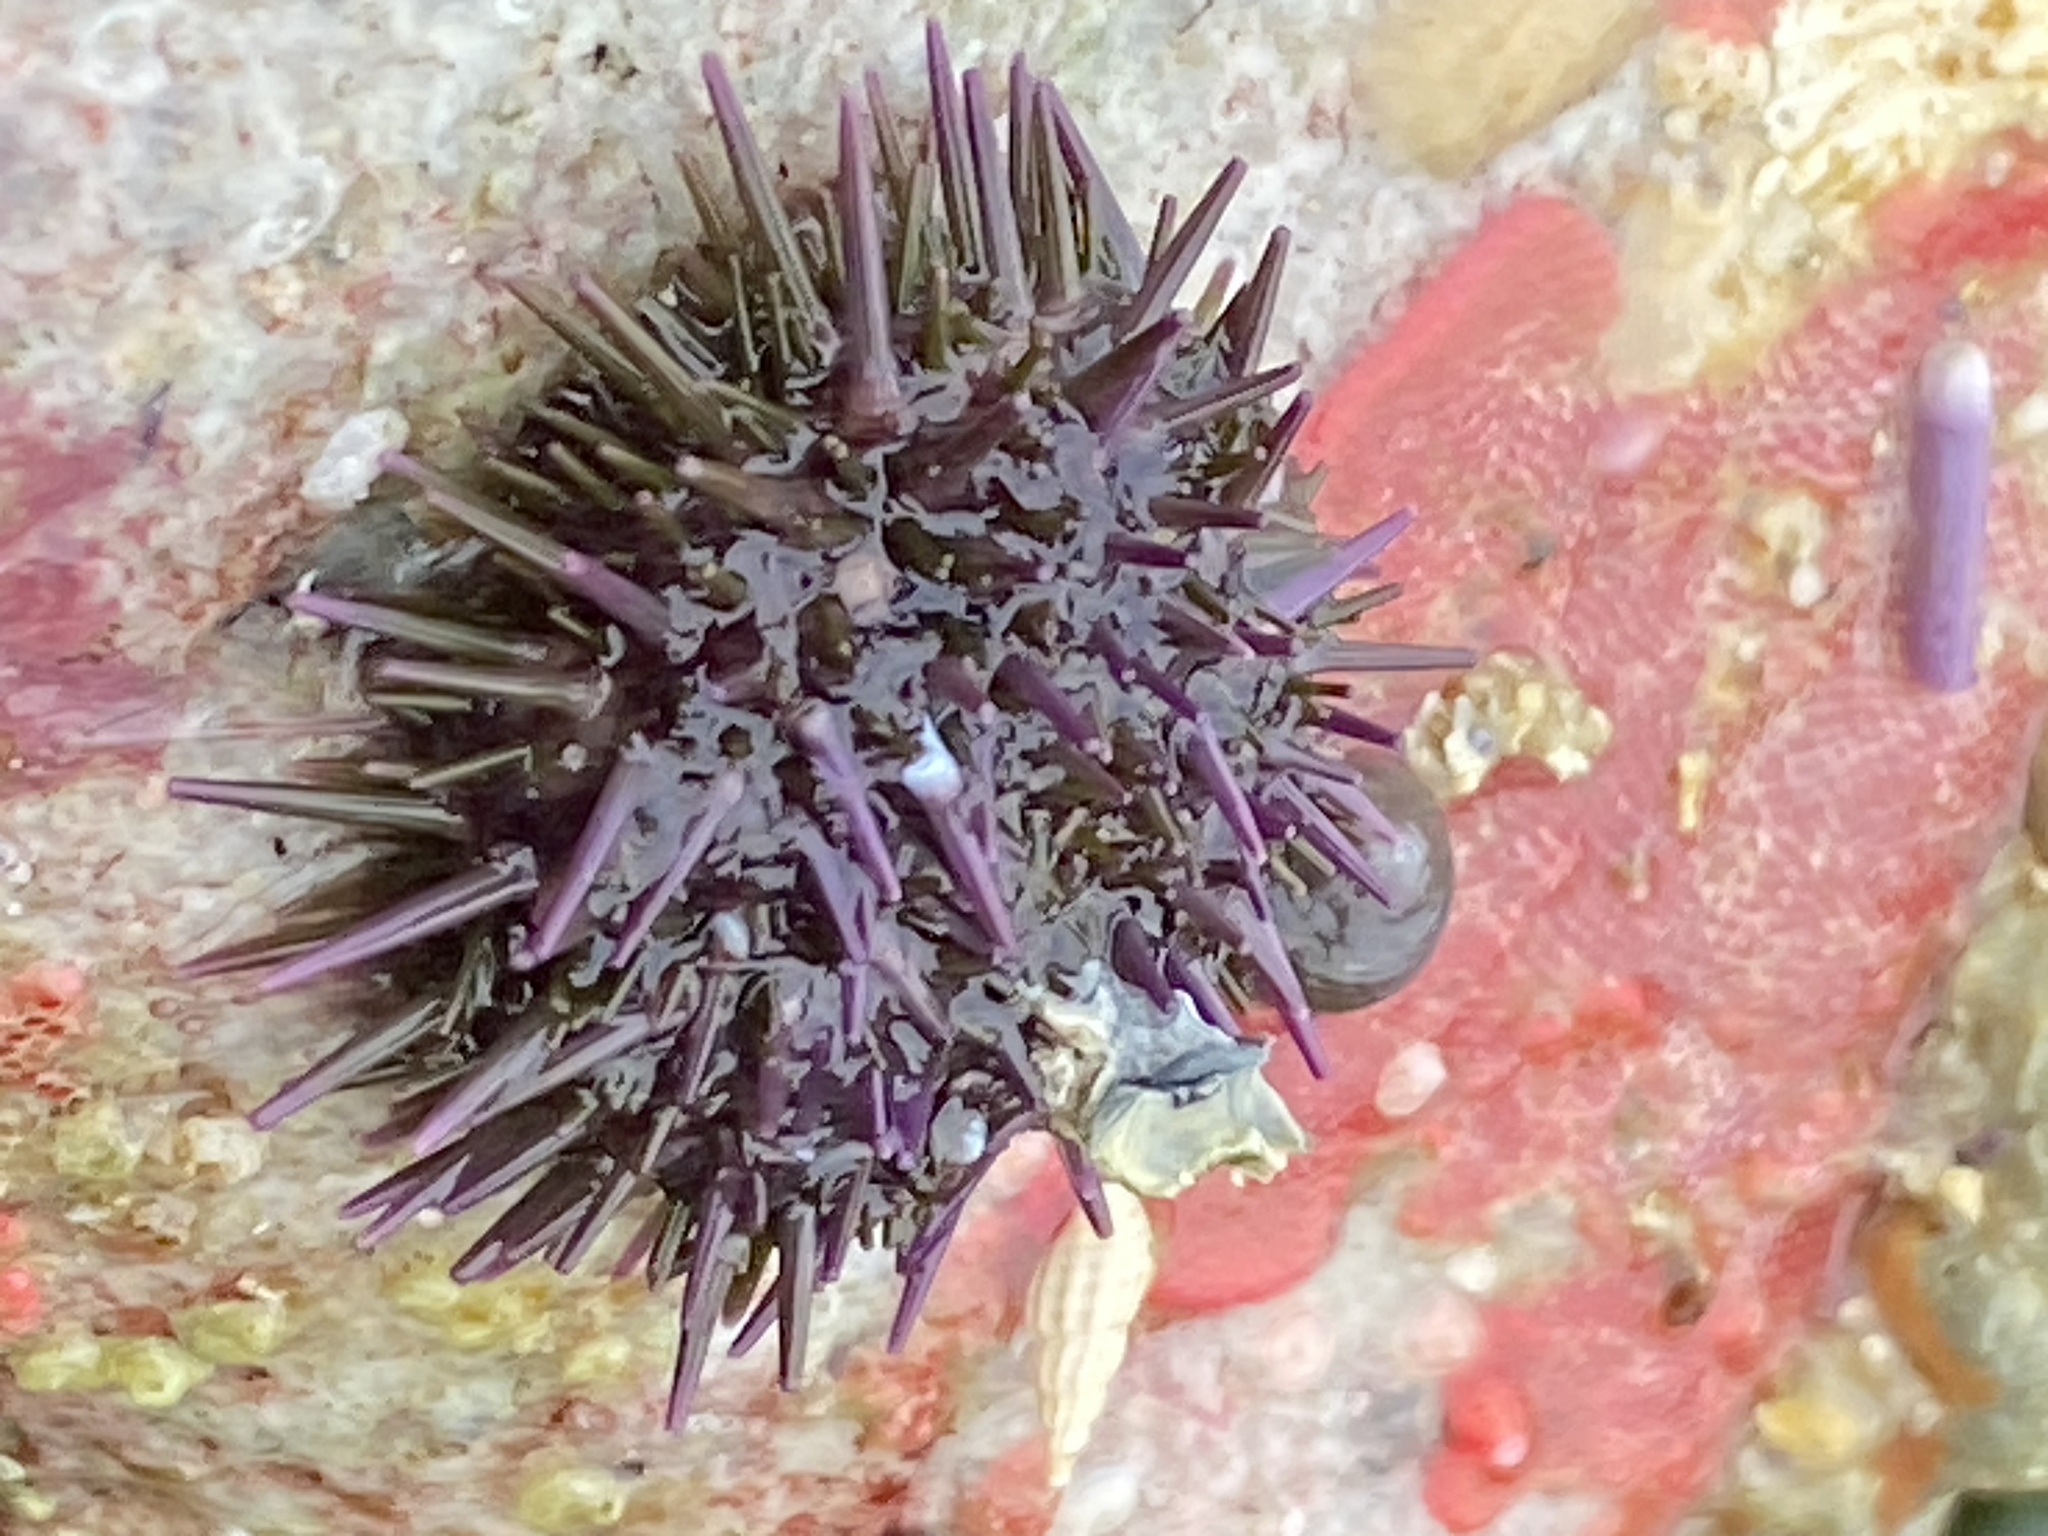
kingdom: Animalia
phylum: Echinodermata
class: Echinoidea
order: Camarodonta
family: Strongylocentrotidae
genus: Strongylocentrotus
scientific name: Strongylocentrotus purpuratus
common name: Purple sea urchin
